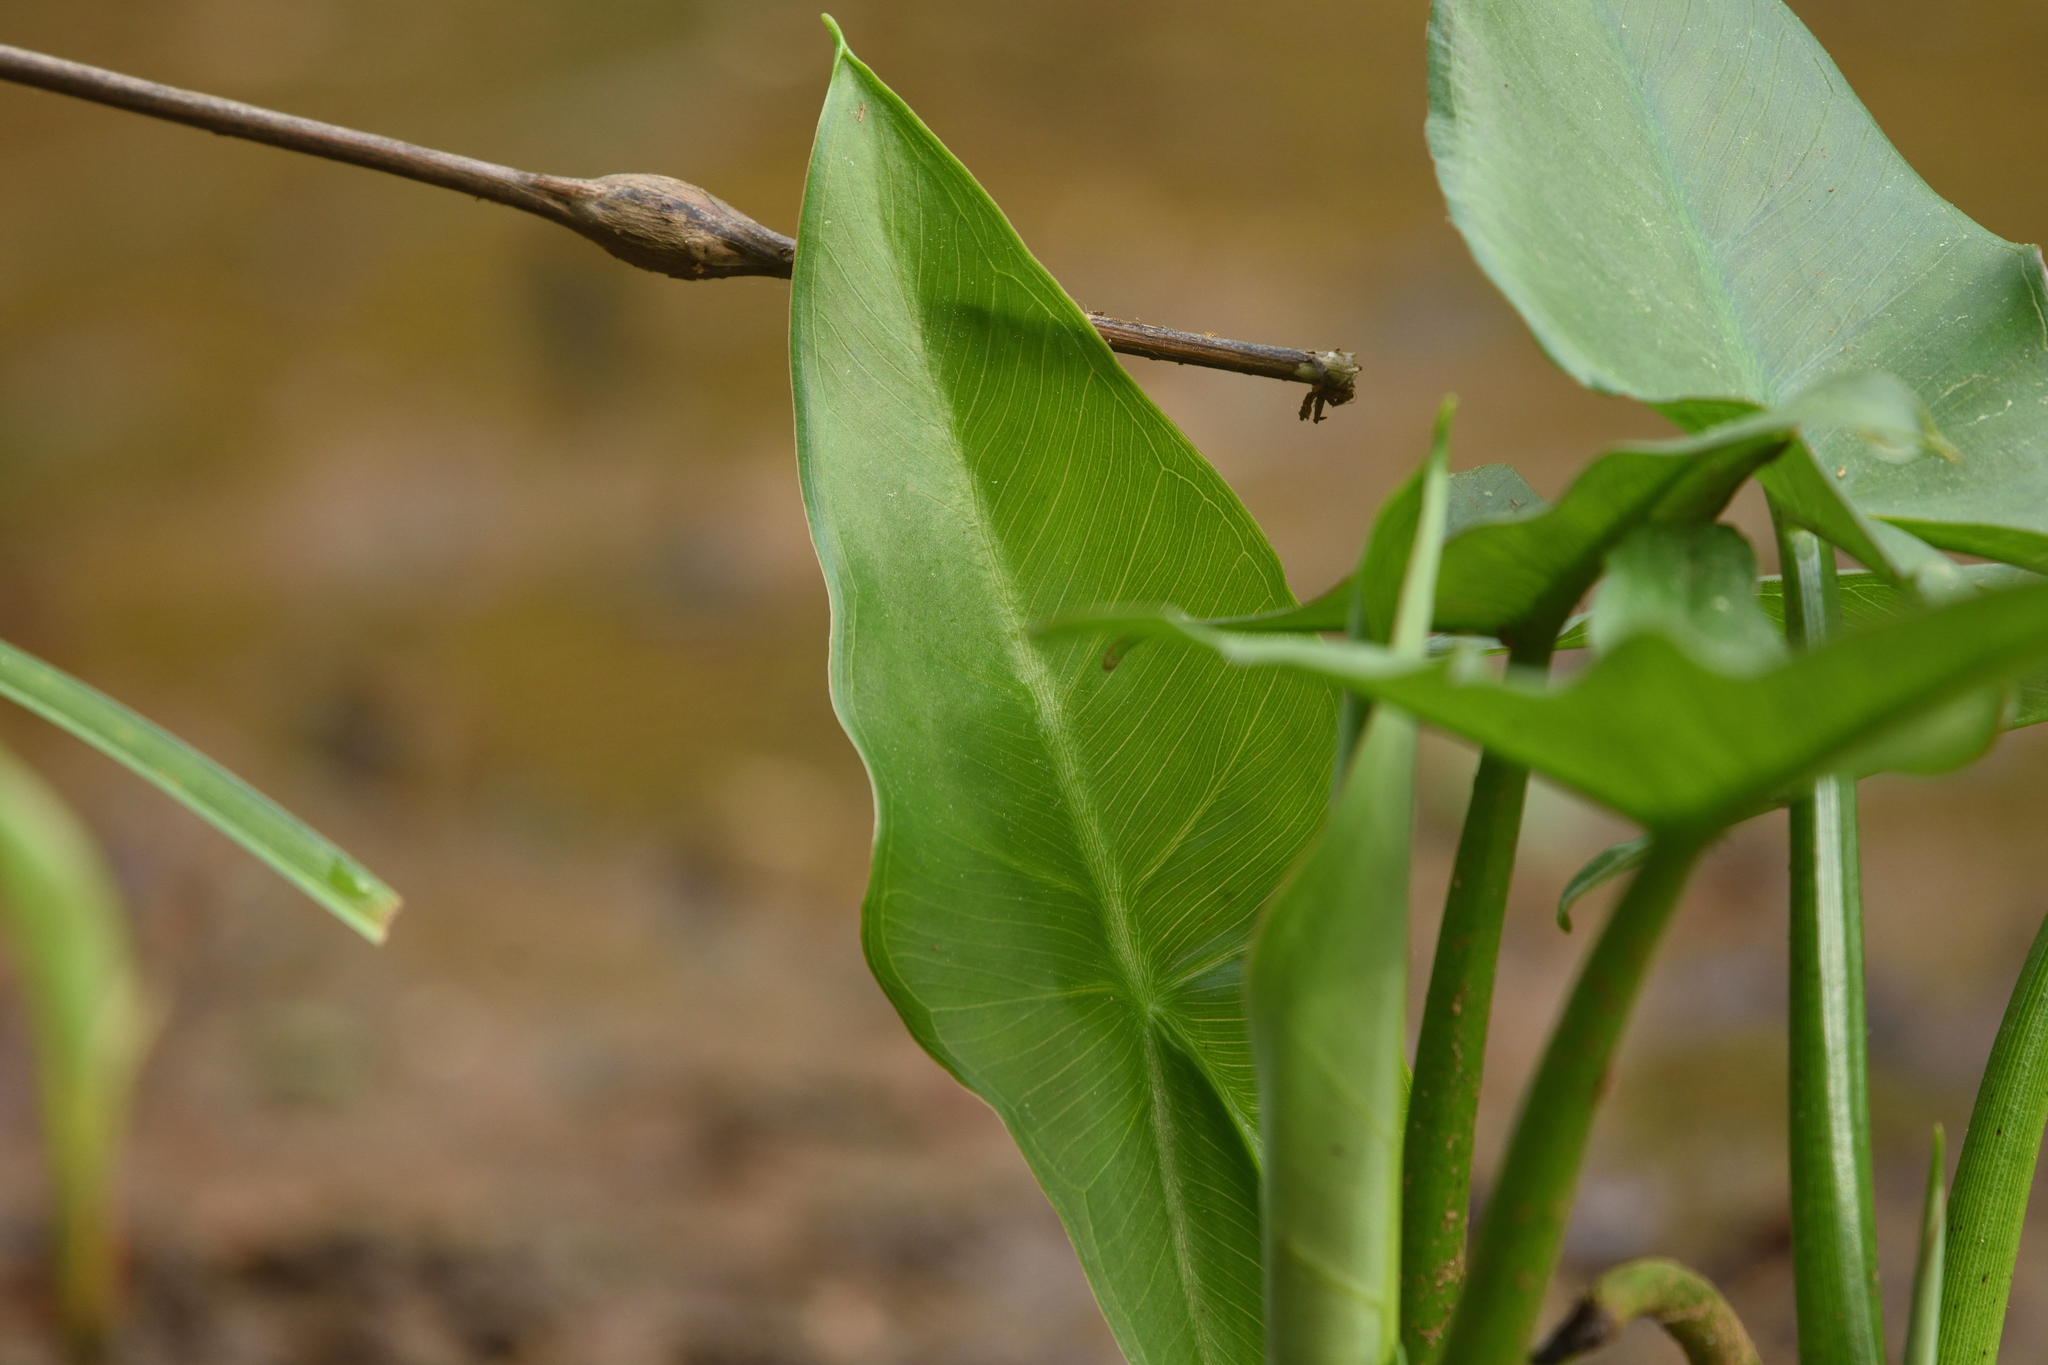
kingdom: Plantae
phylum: Tracheophyta
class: Liliopsida
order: Alismatales
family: Araceae
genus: Peltandra
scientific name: Peltandra virginica
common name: Arrow arum
